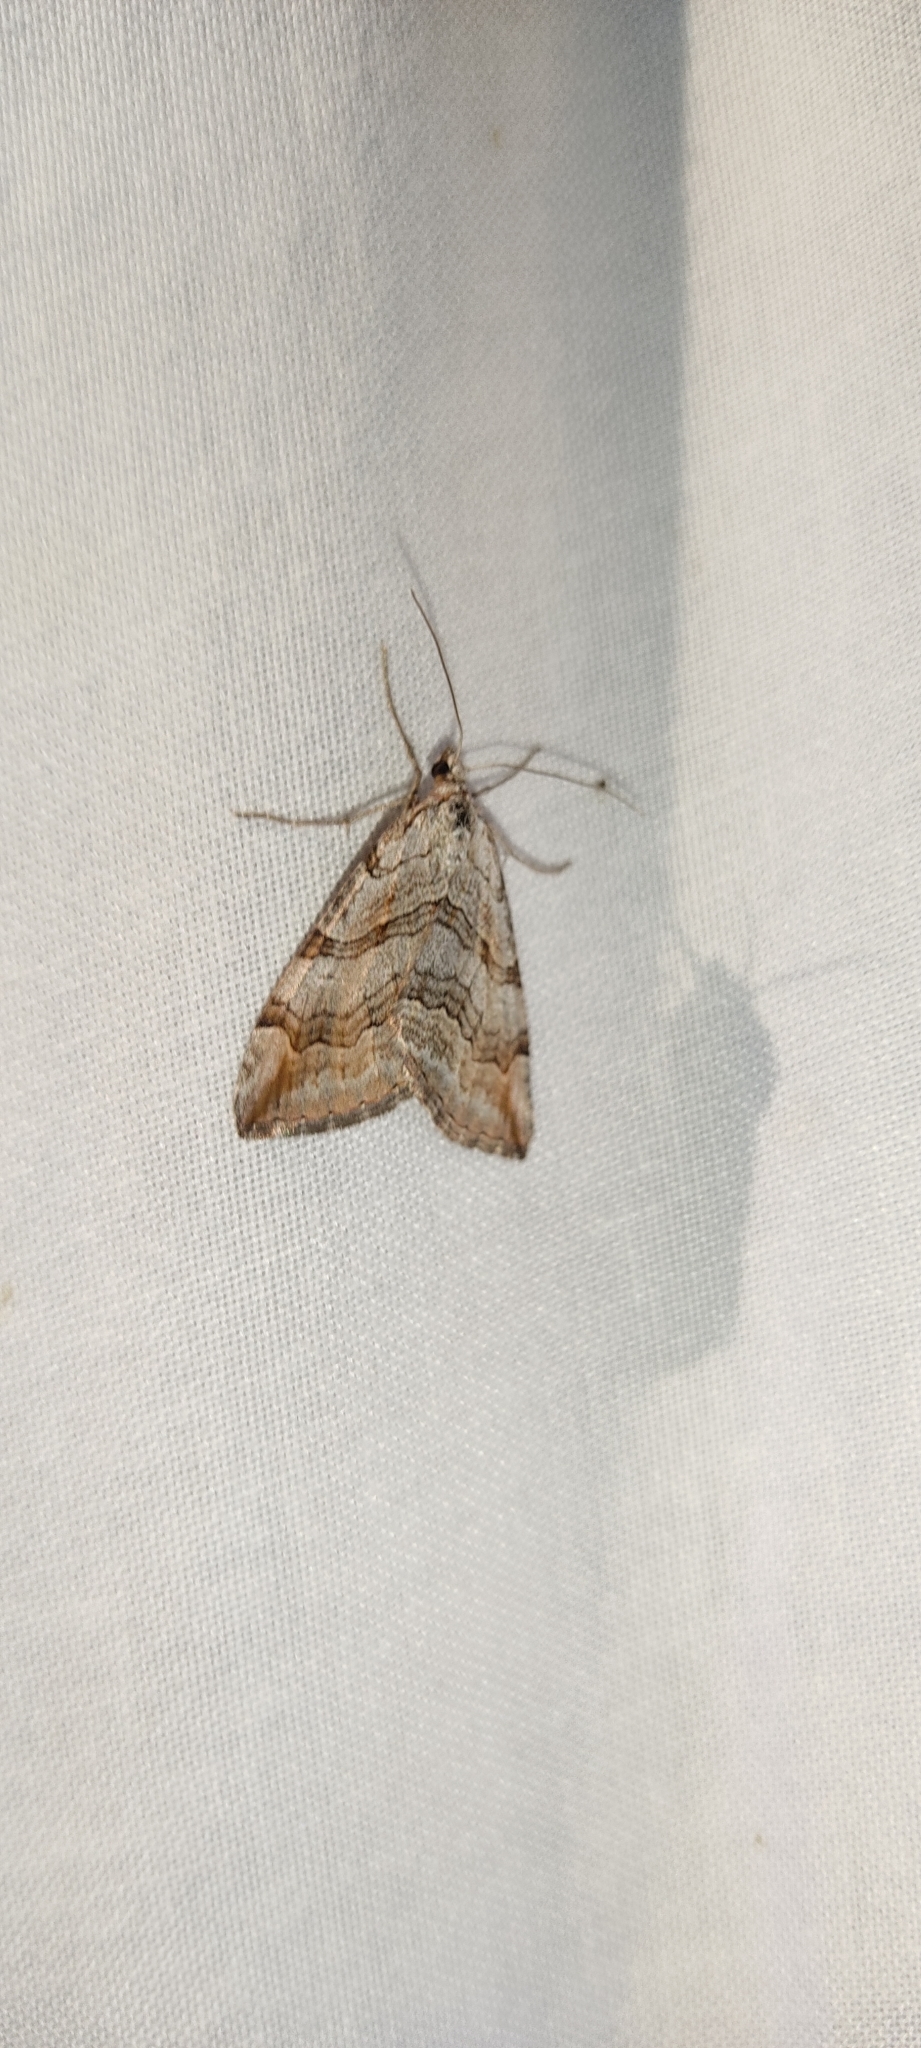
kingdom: Animalia
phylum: Arthropoda
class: Insecta
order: Lepidoptera
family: Geometridae
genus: Aplocera
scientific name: Aplocera plagiata
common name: Treble-bar
